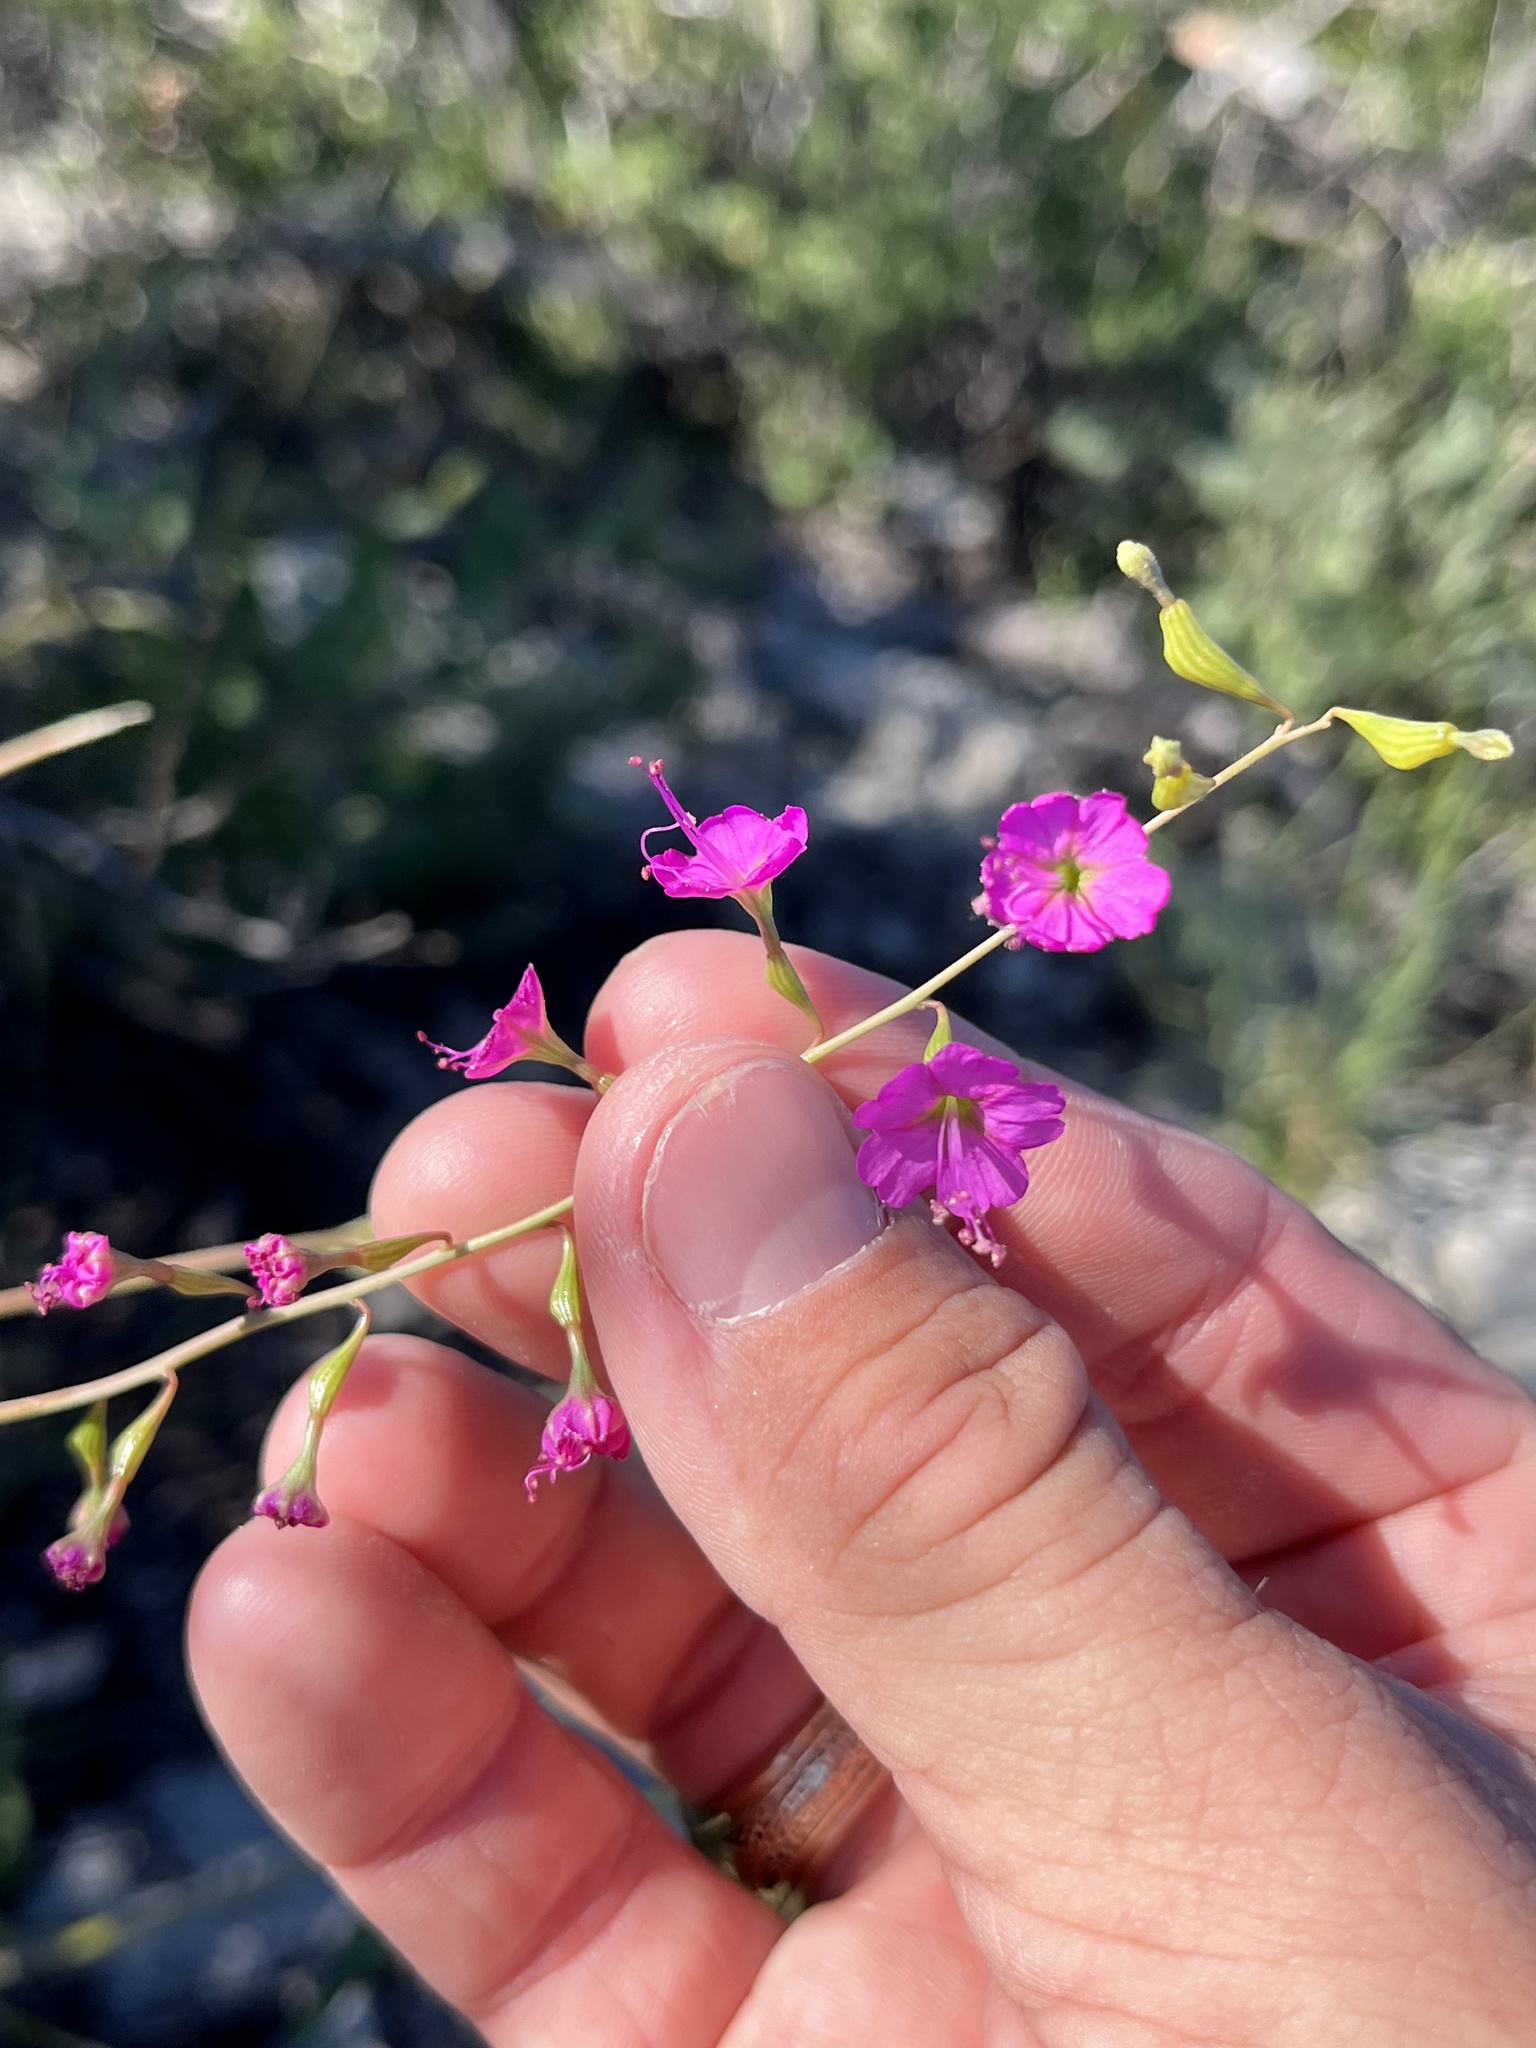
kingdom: Plantae
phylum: Tracheophyta
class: Magnoliopsida
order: Caryophyllales
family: Nyctaginaceae
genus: Cyphomeris
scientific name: Cyphomeris gypsophiloides
